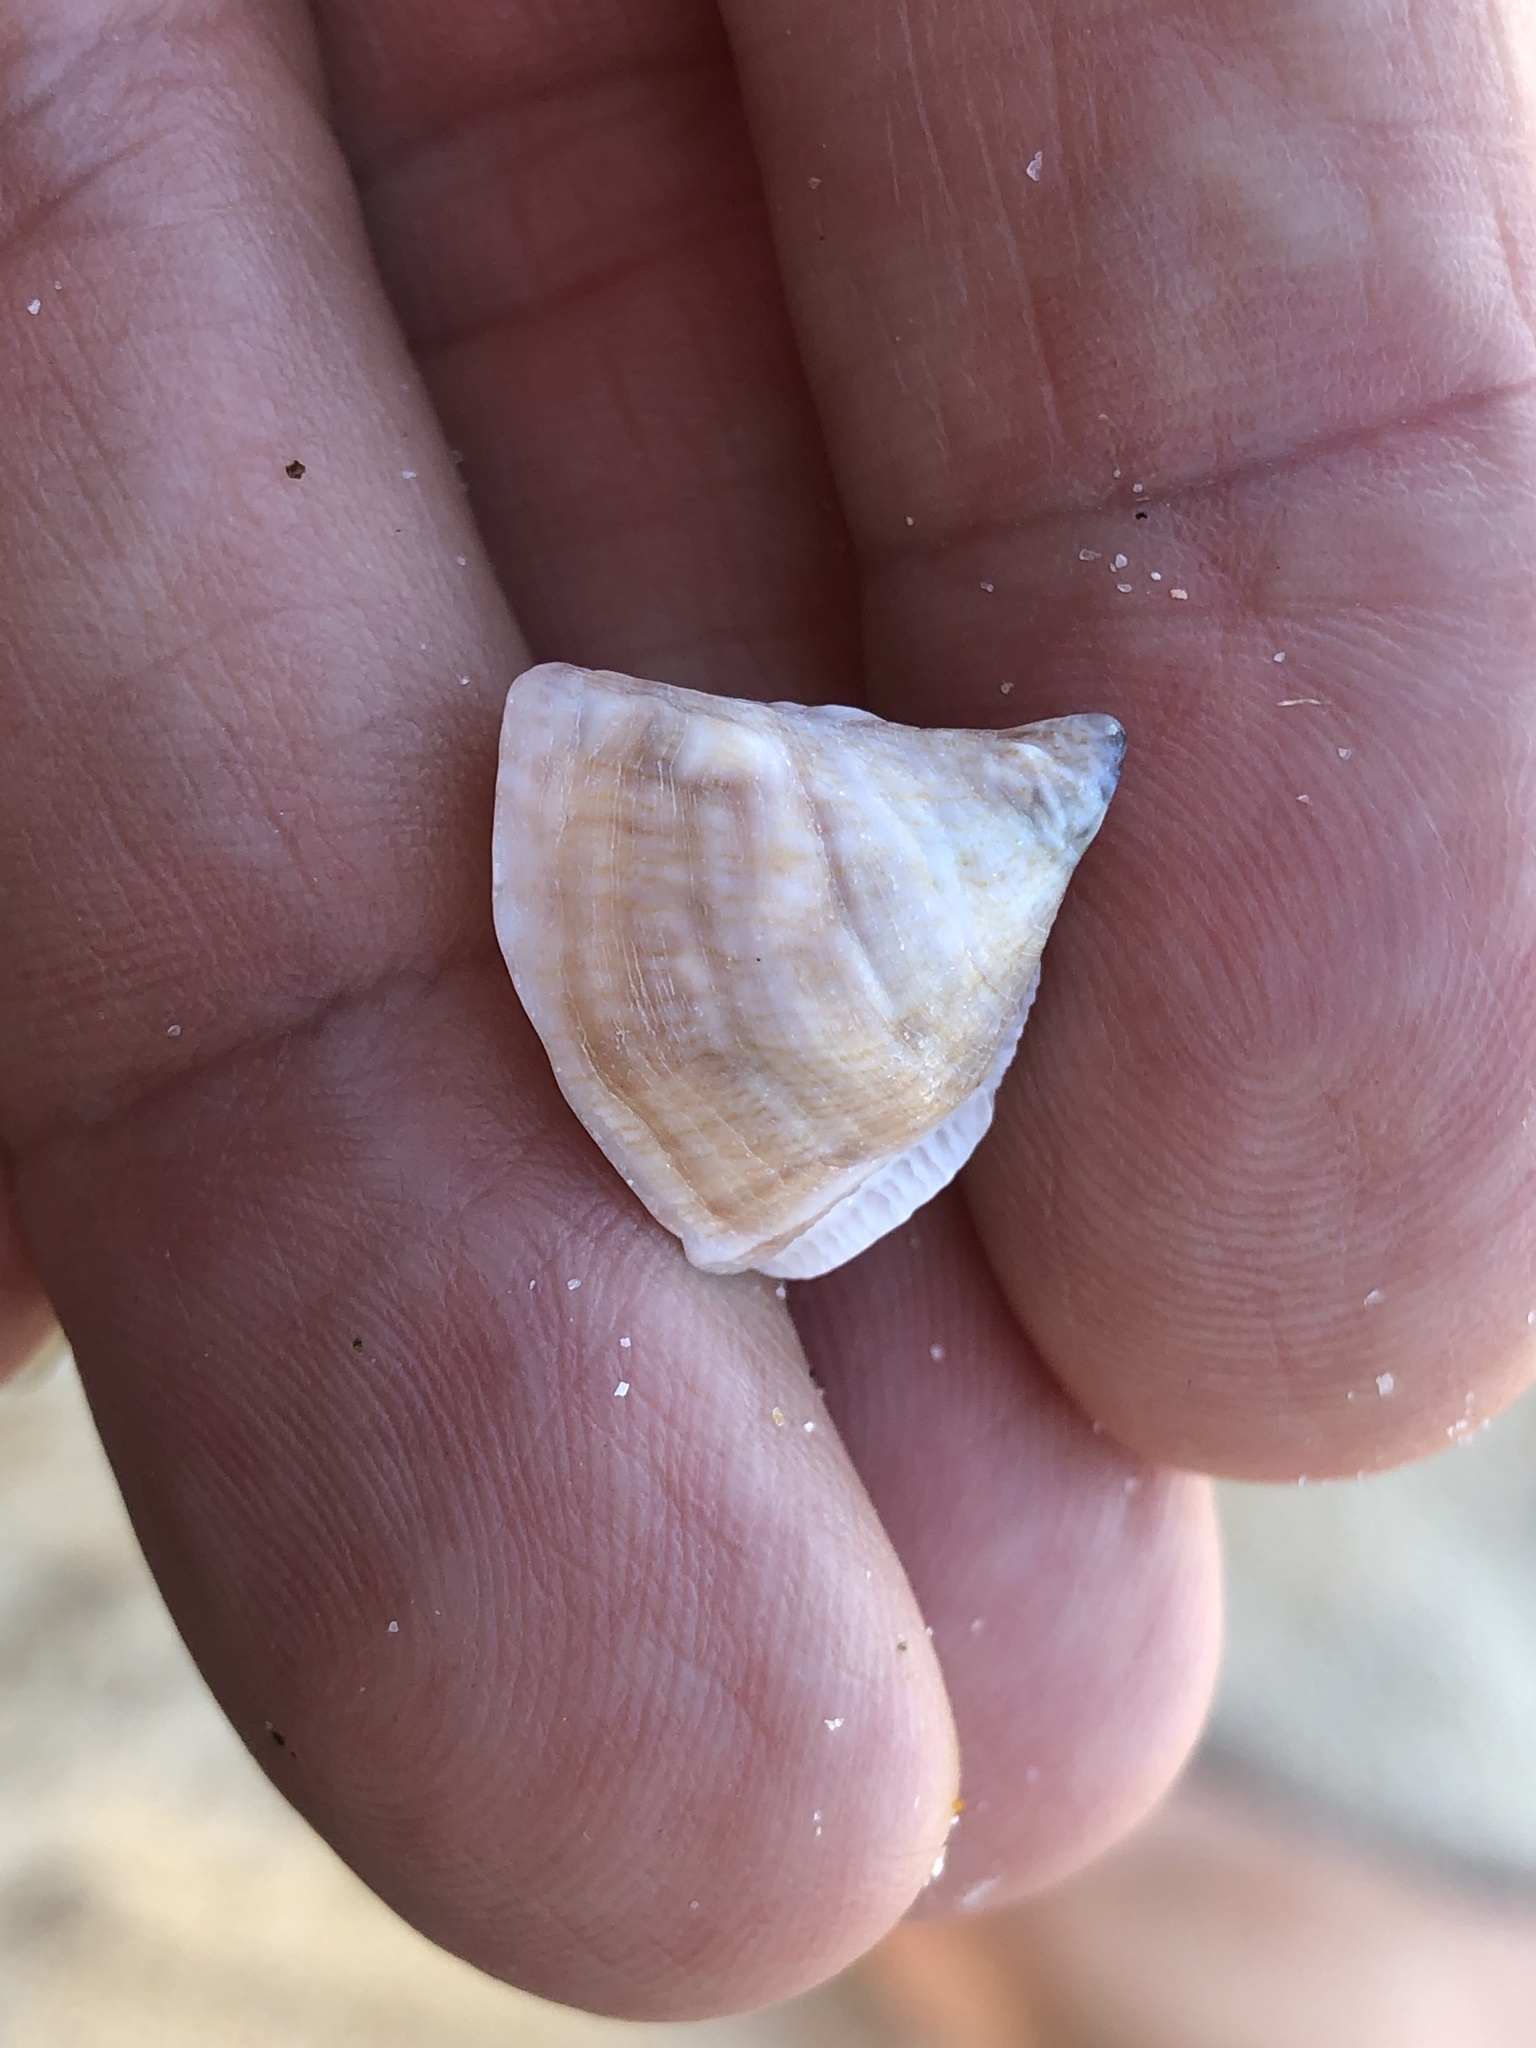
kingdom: Animalia
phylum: Mollusca
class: Gastropoda
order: Littorinimorpha
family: Calyptraeidae
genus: Desmaulus
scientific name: Desmaulus extinctorium
